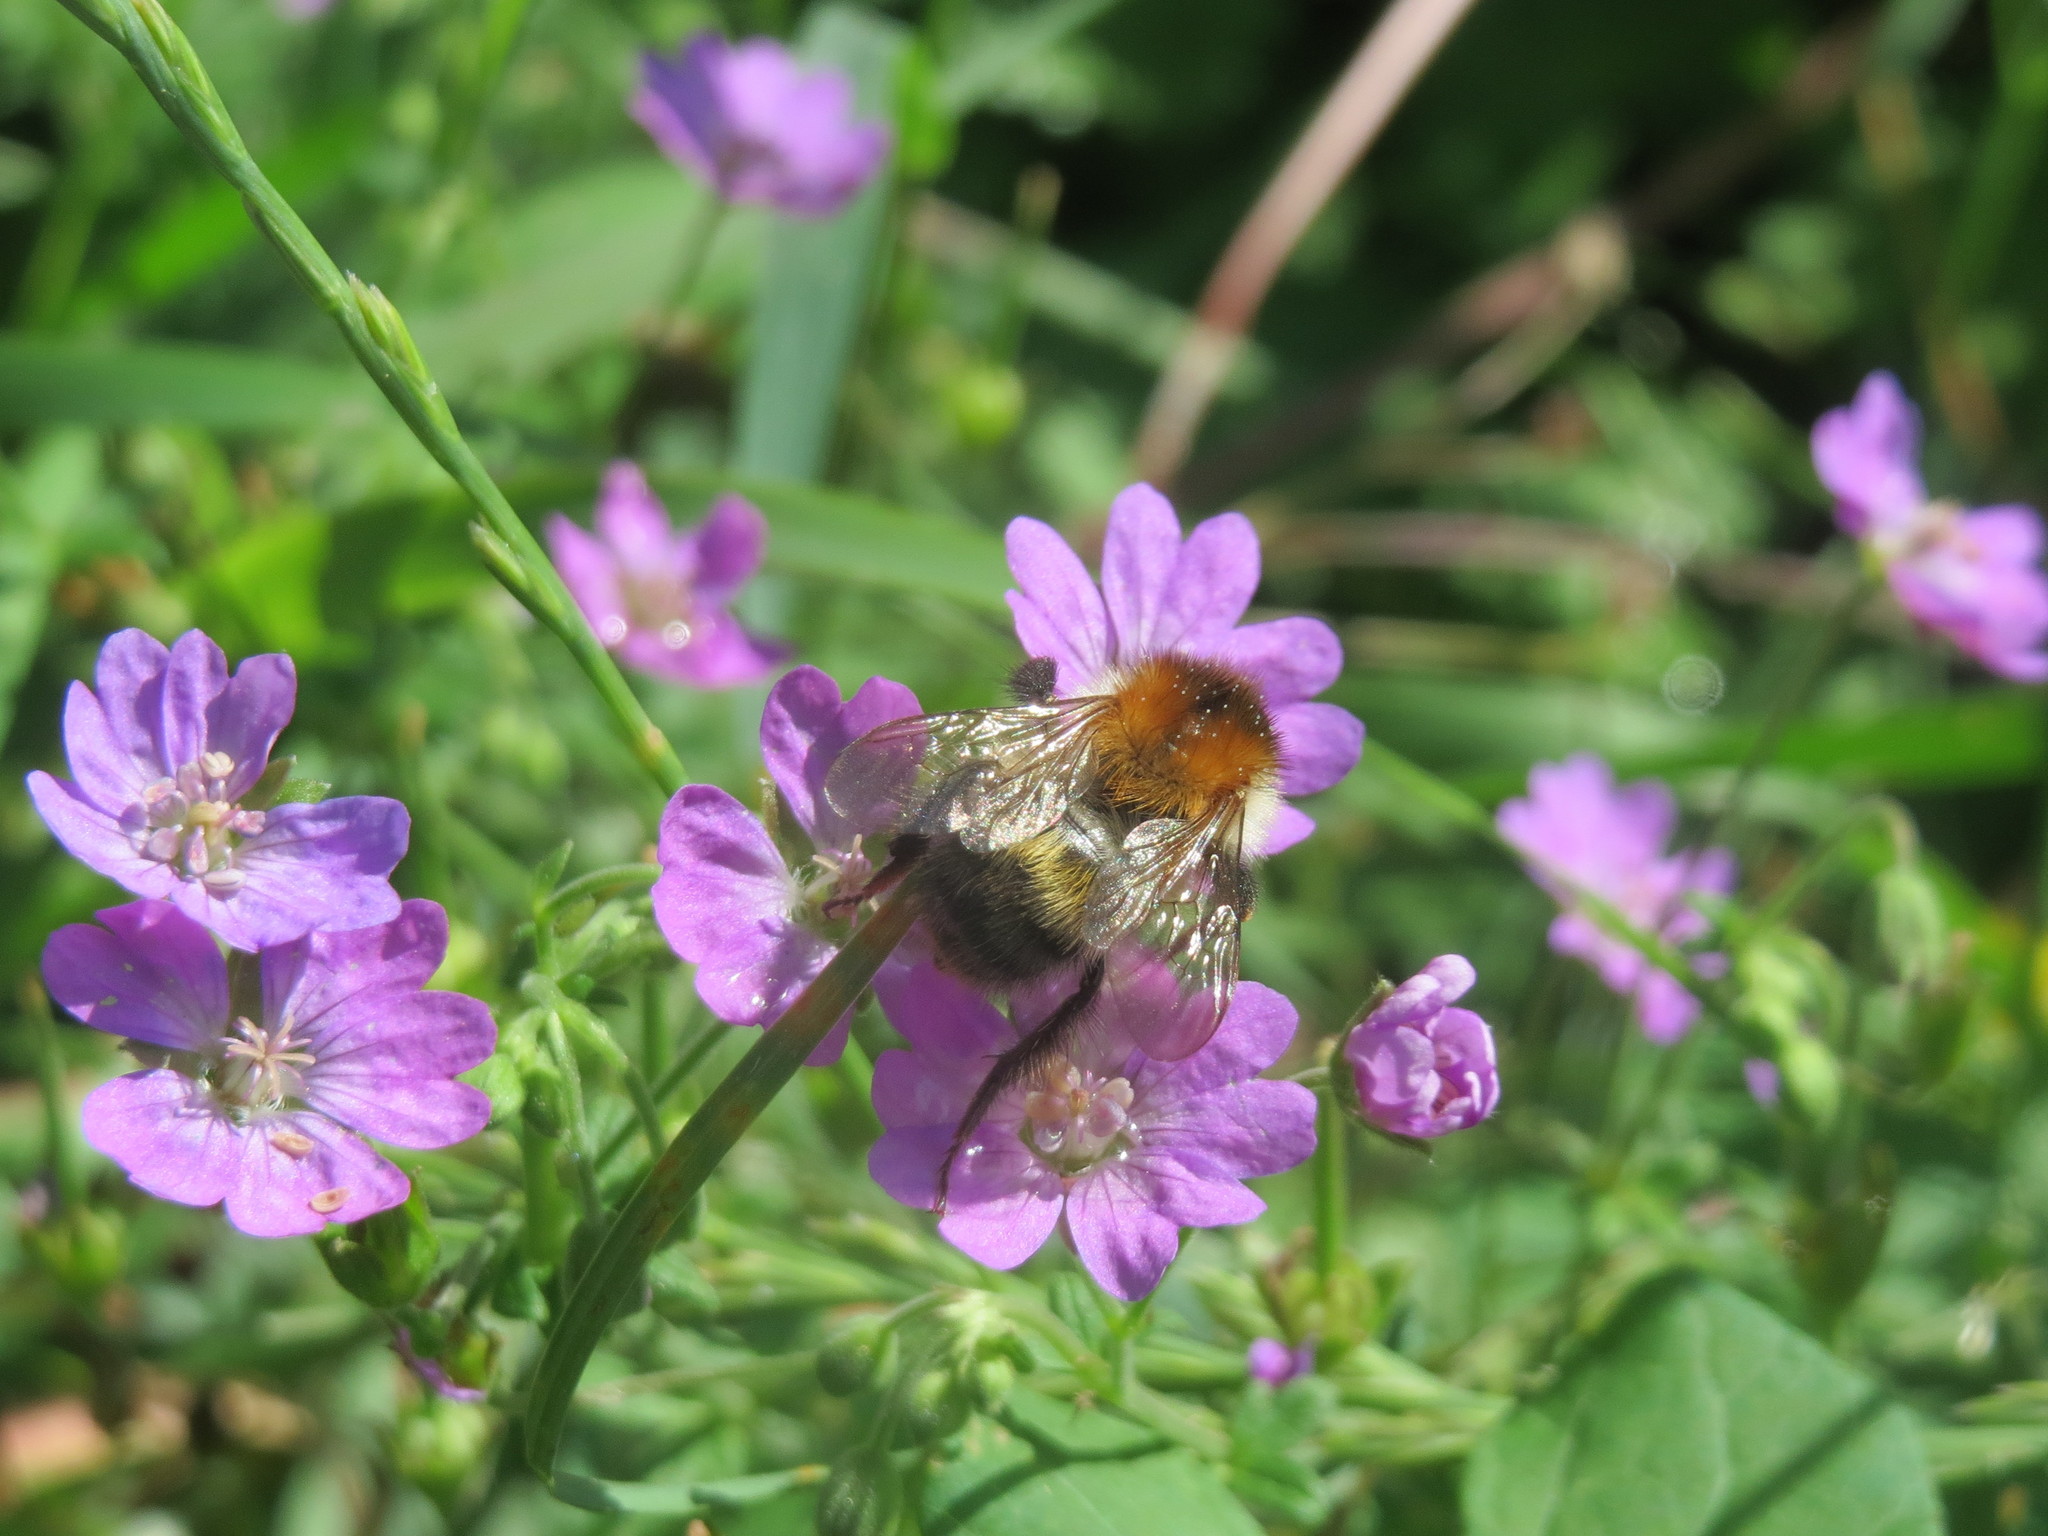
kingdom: Plantae
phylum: Tracheophyta
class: Magnoliopsida
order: Geraniales
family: Geraniaceae
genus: Geranium
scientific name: Geranium pyrenaicum
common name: Hedgerow crane's-bill
